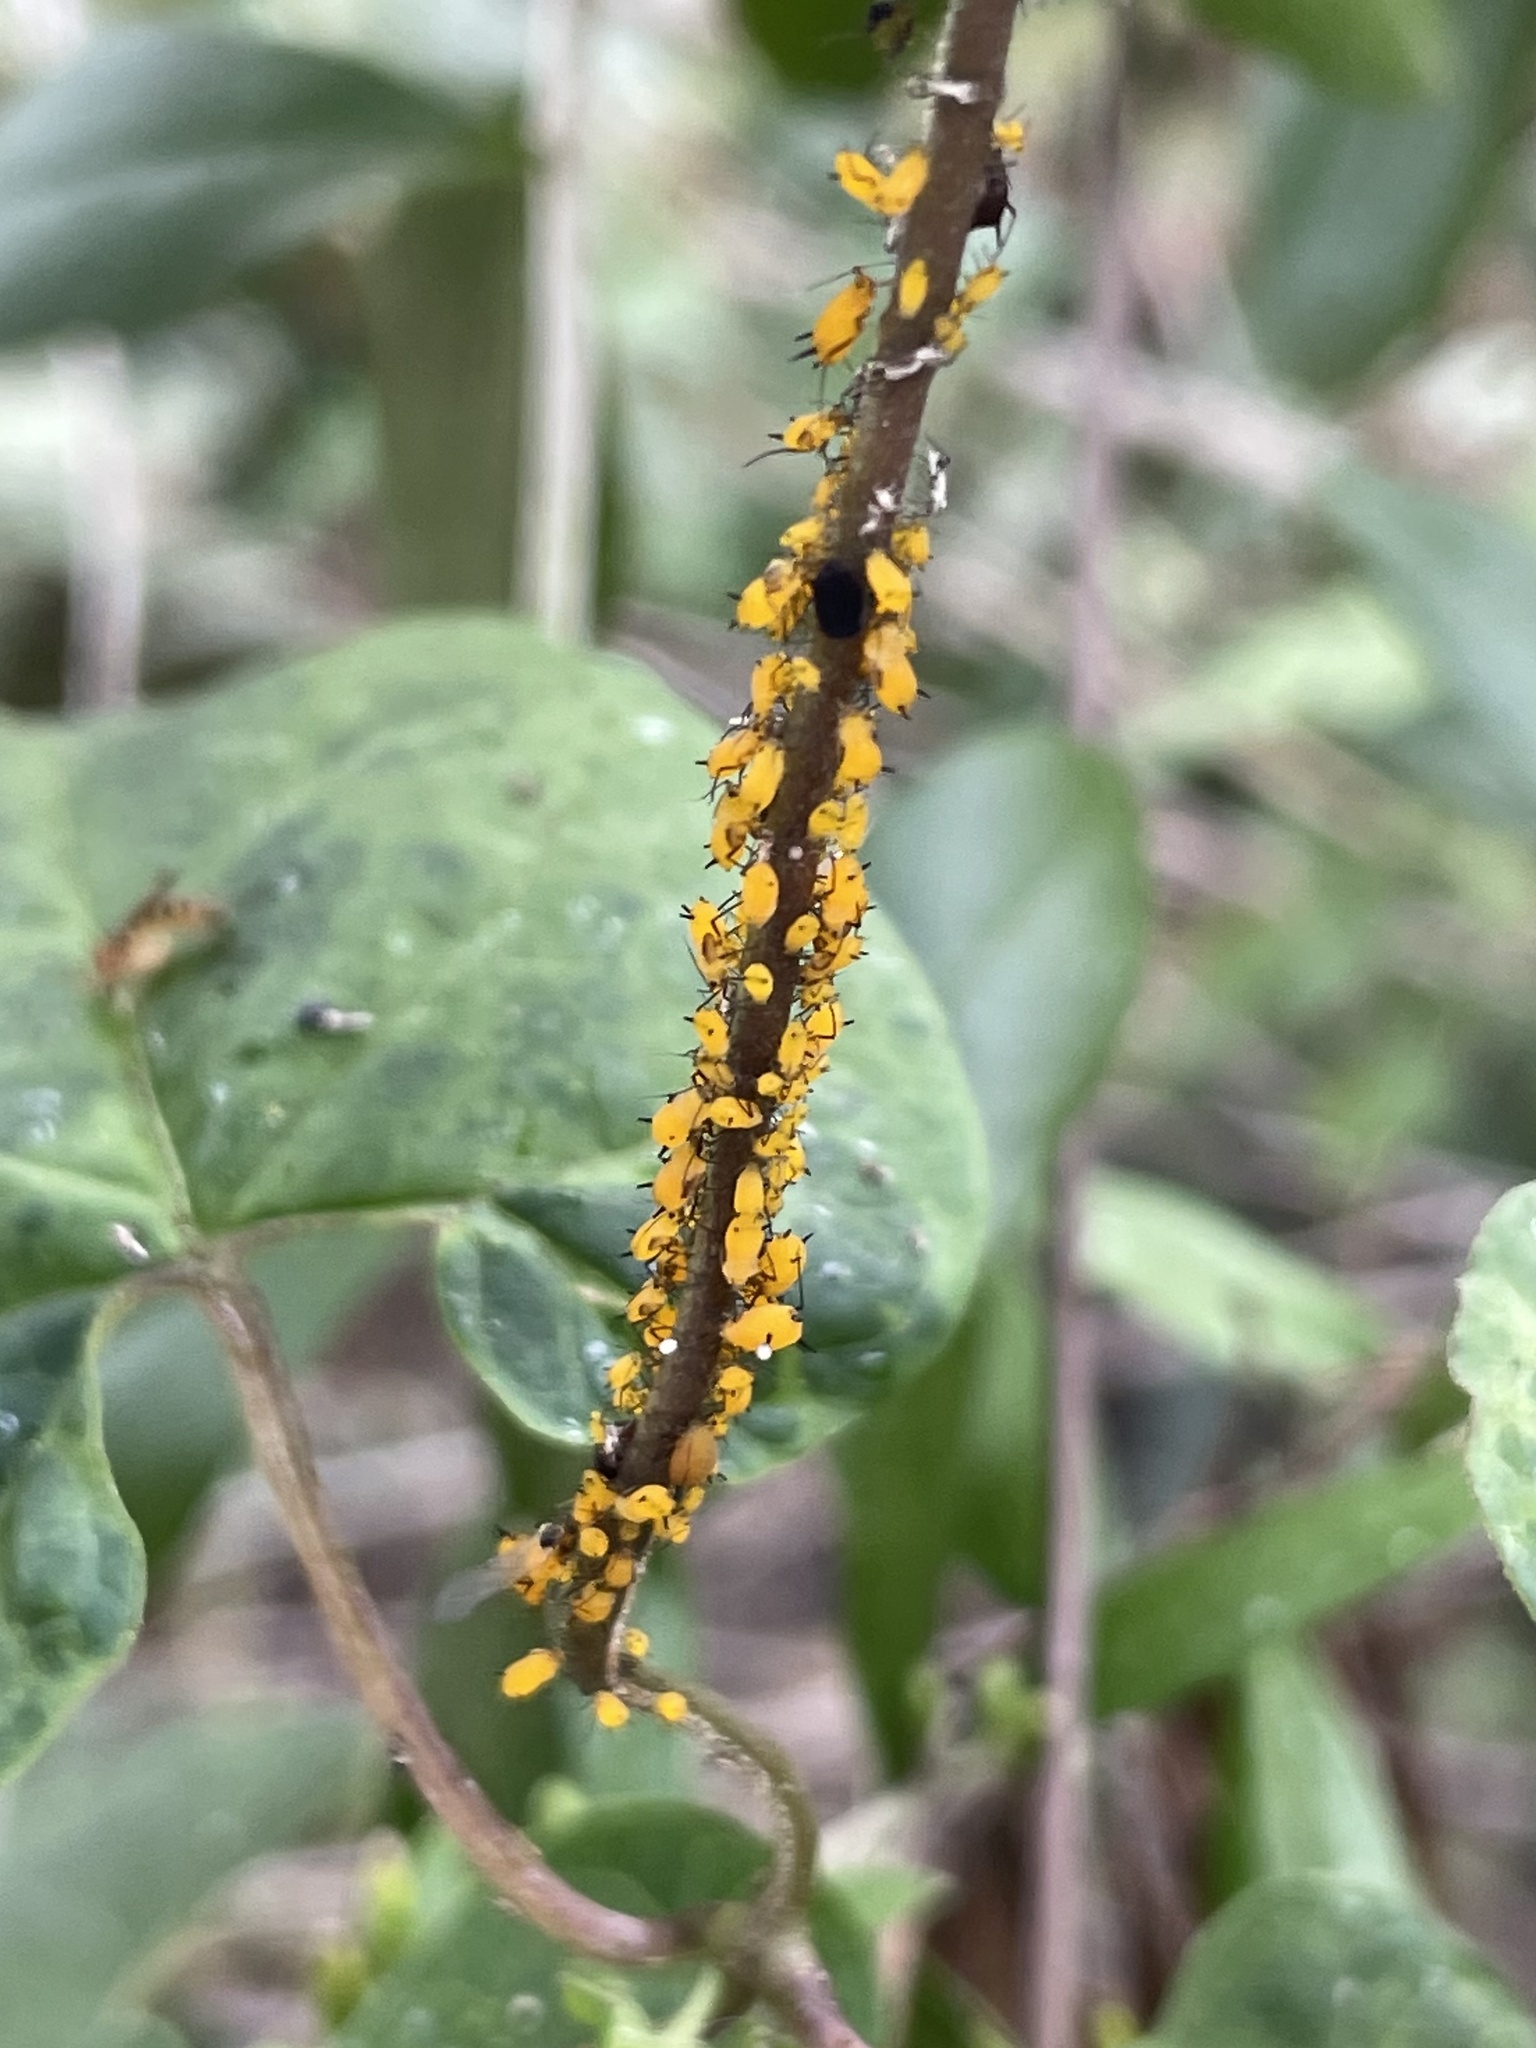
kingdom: Animalia
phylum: Arthropoda
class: Insecta
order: Hemiptera
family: Aphididae
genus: Aphis
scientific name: Aphis nerii
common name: Oleander aphid
